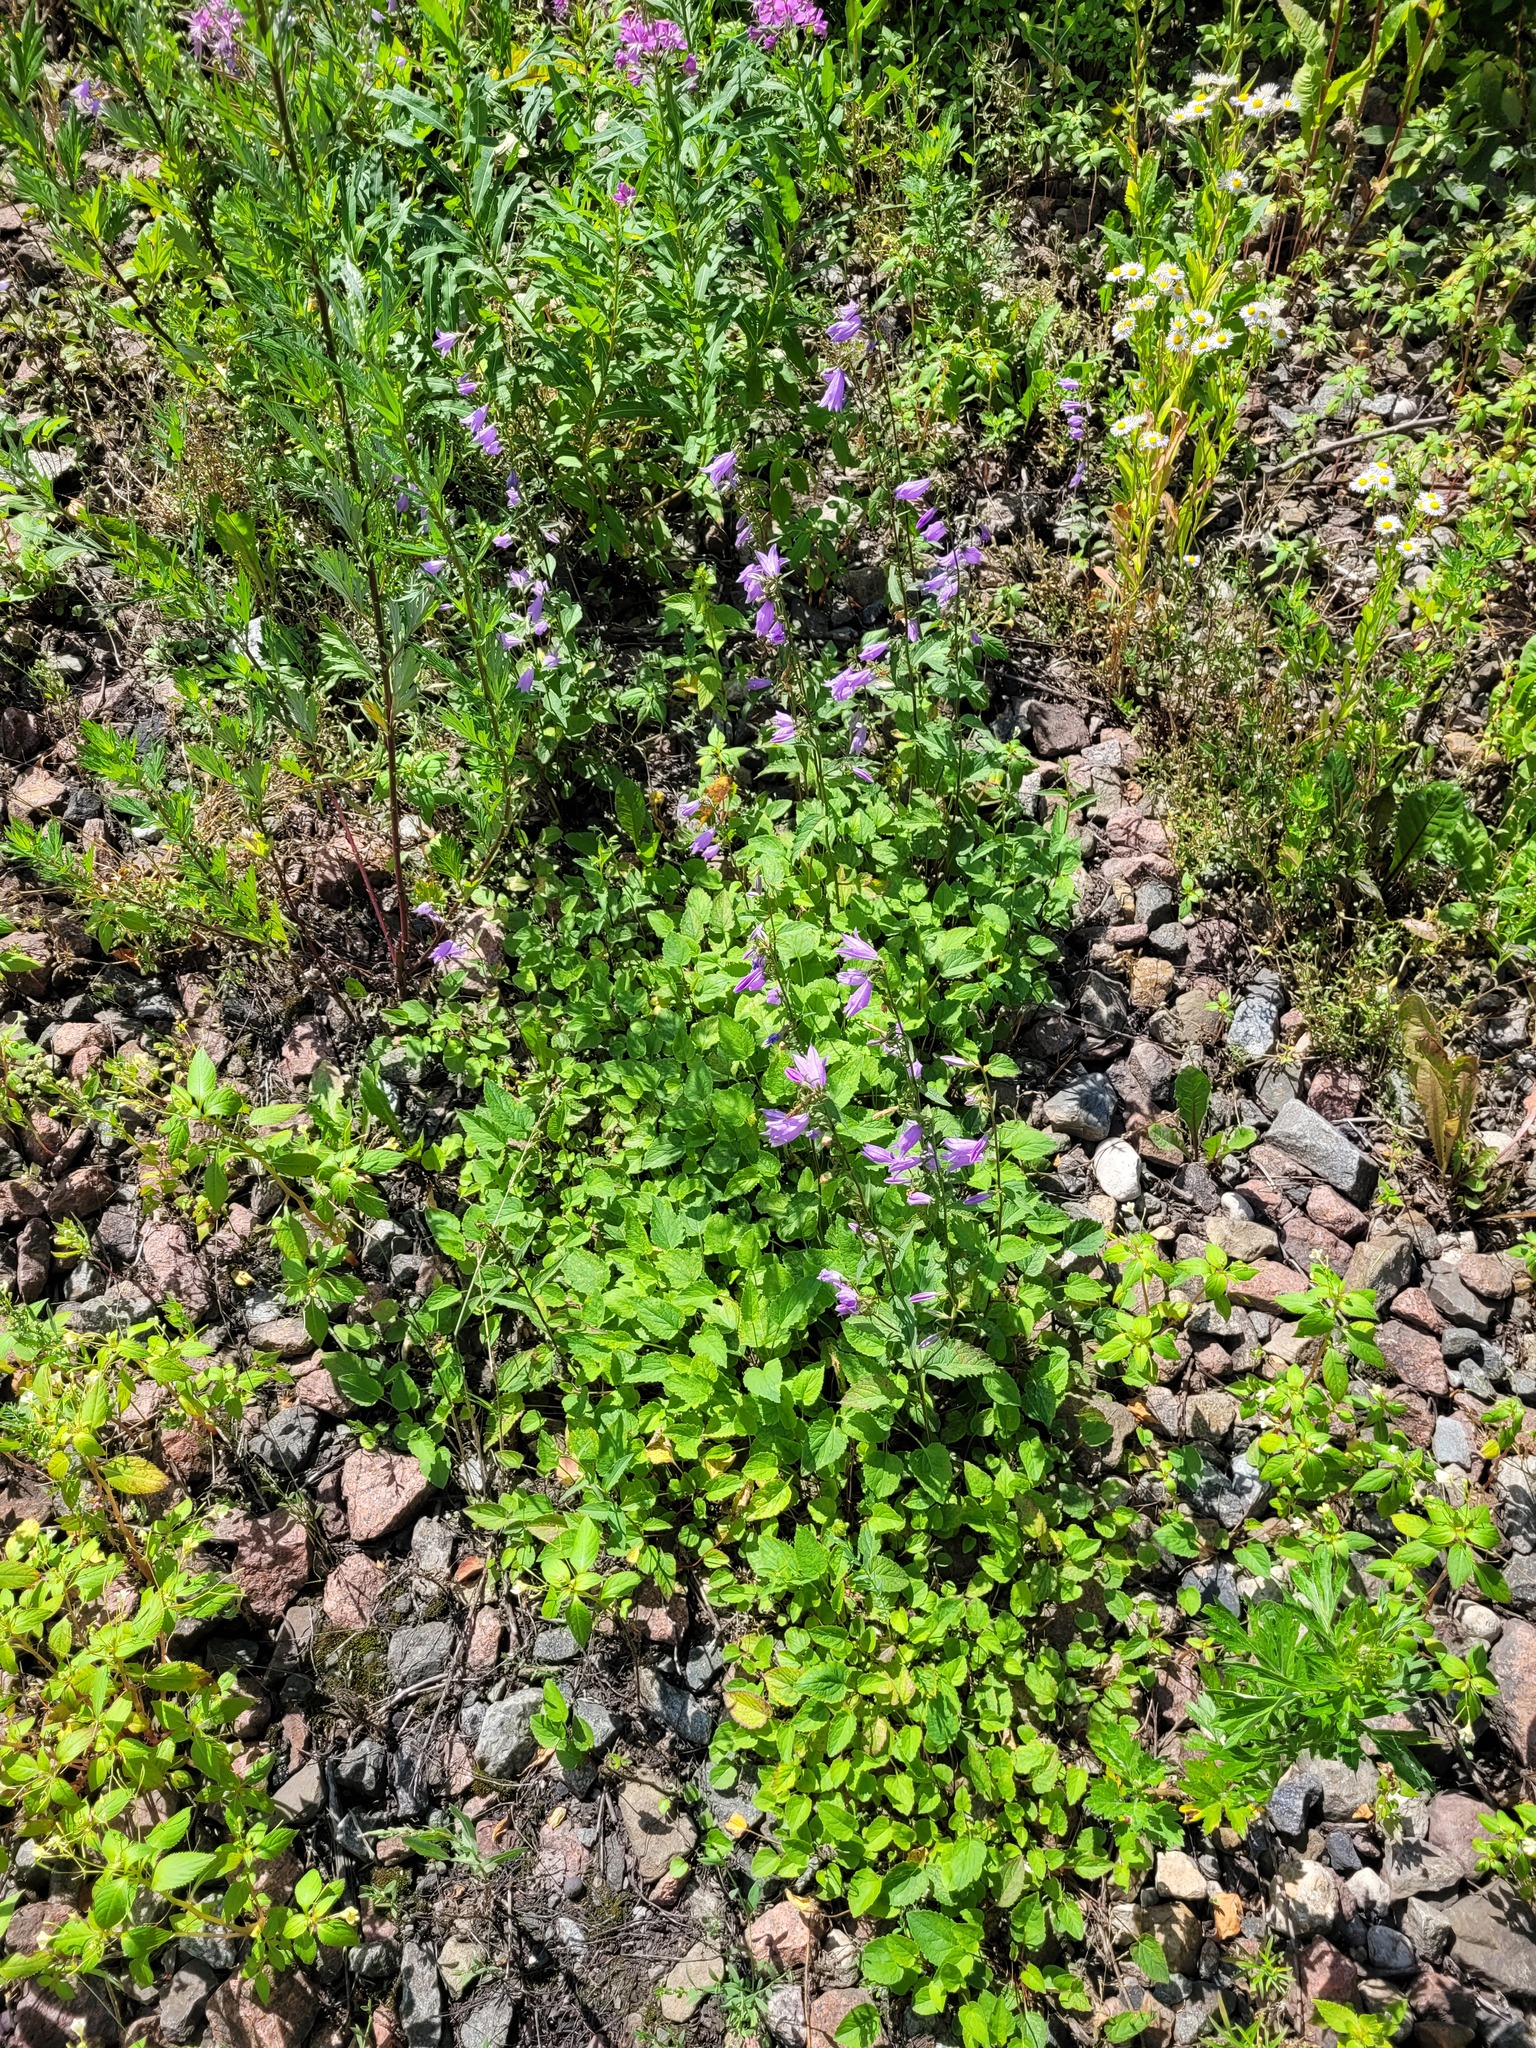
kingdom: Plantae
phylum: Tracheophyta
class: Magnoliopsida
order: Asterales
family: Campanulaceae
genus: Campanula
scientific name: Campanula rapunculoides
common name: Creeping bellflower
